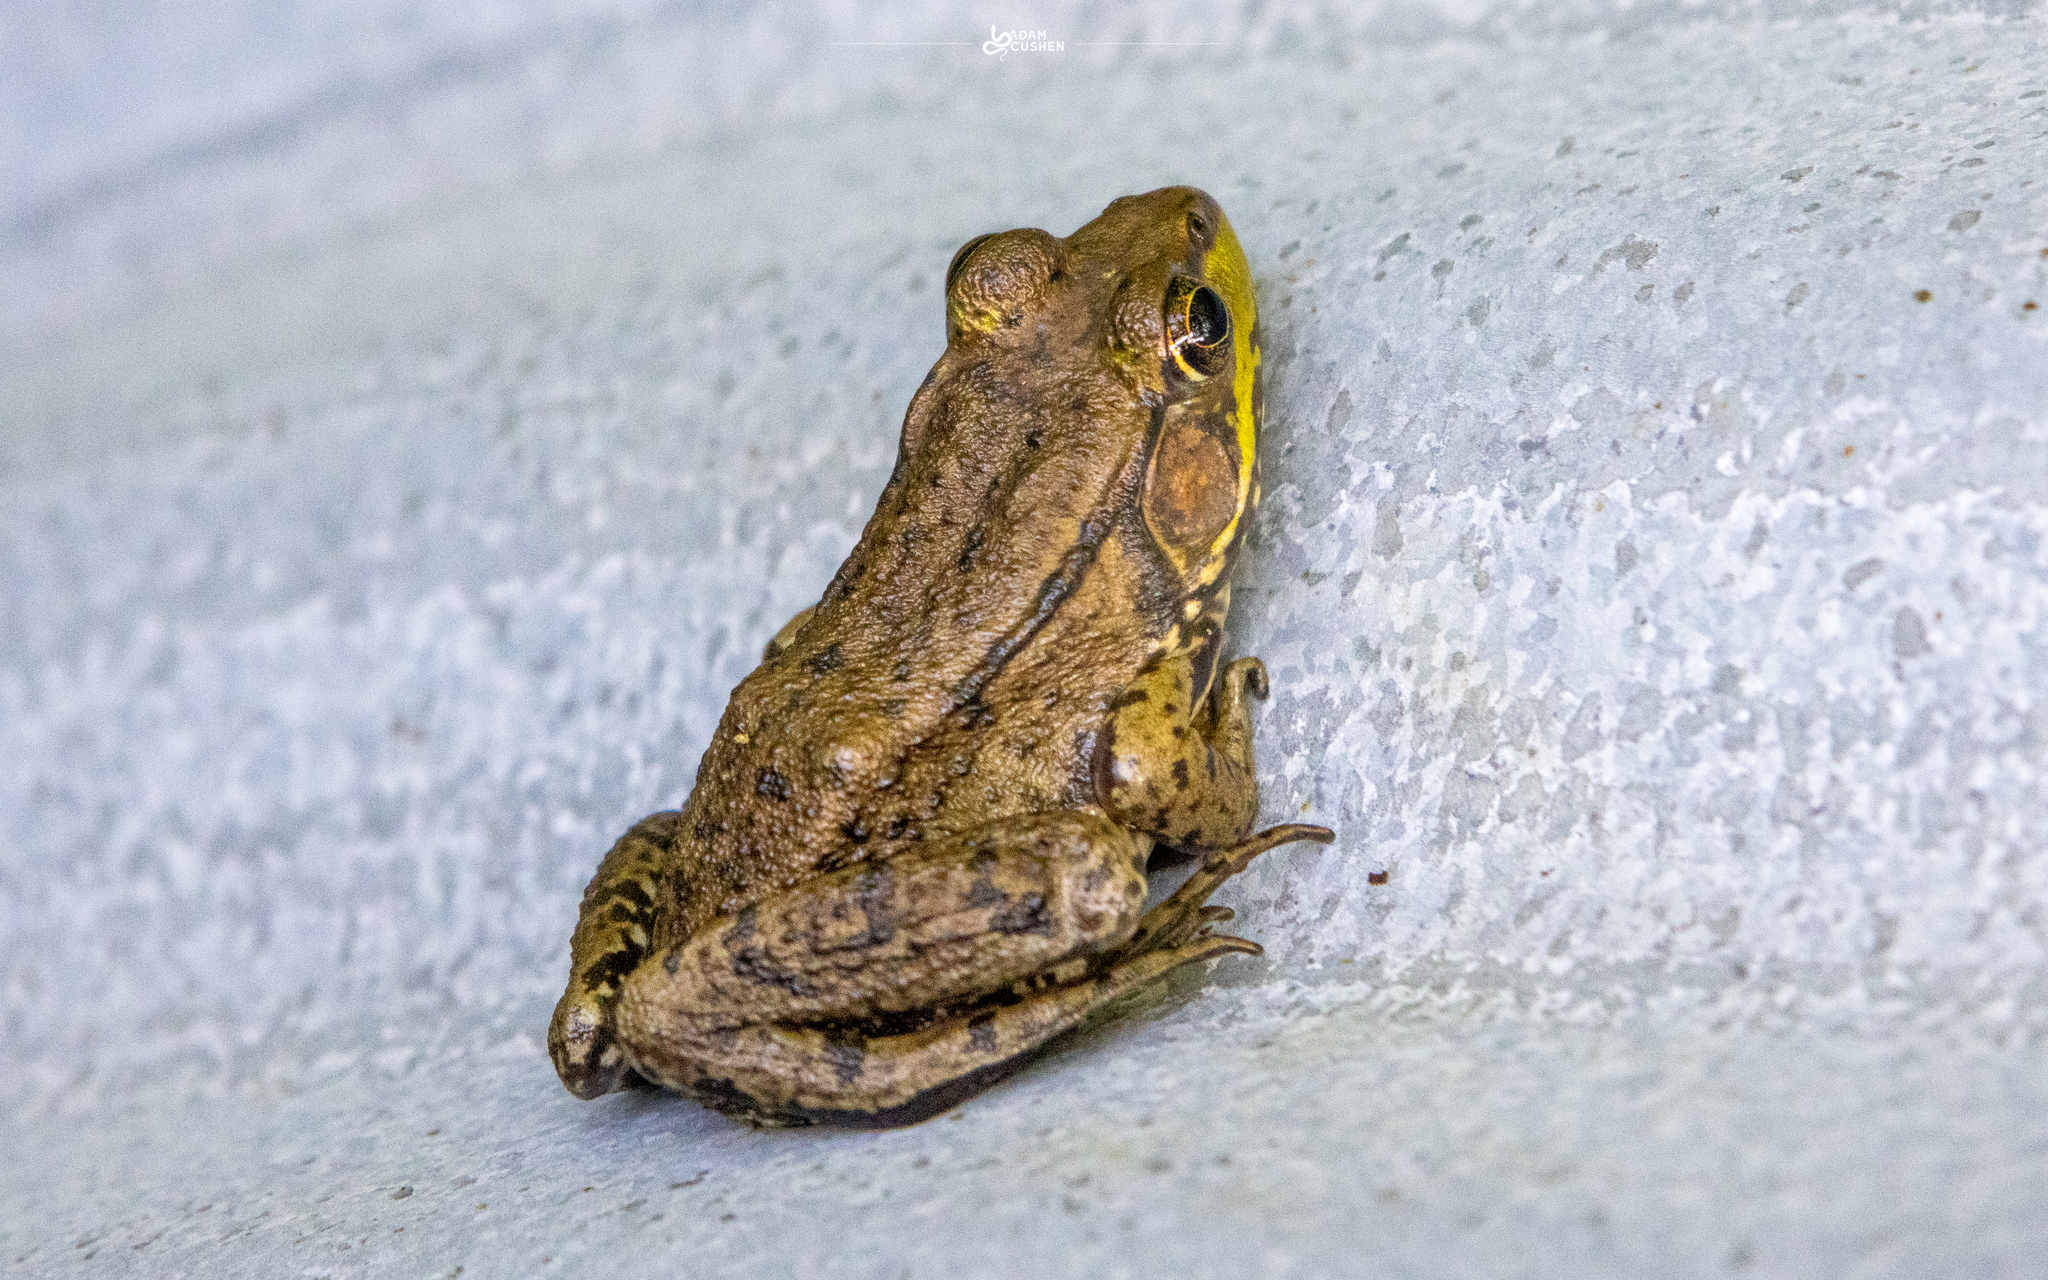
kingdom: Animalia
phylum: Chordata
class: Amphibia
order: Anura
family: Ranidae
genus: Lithobates
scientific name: Lithobates clamitans
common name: Green frog
